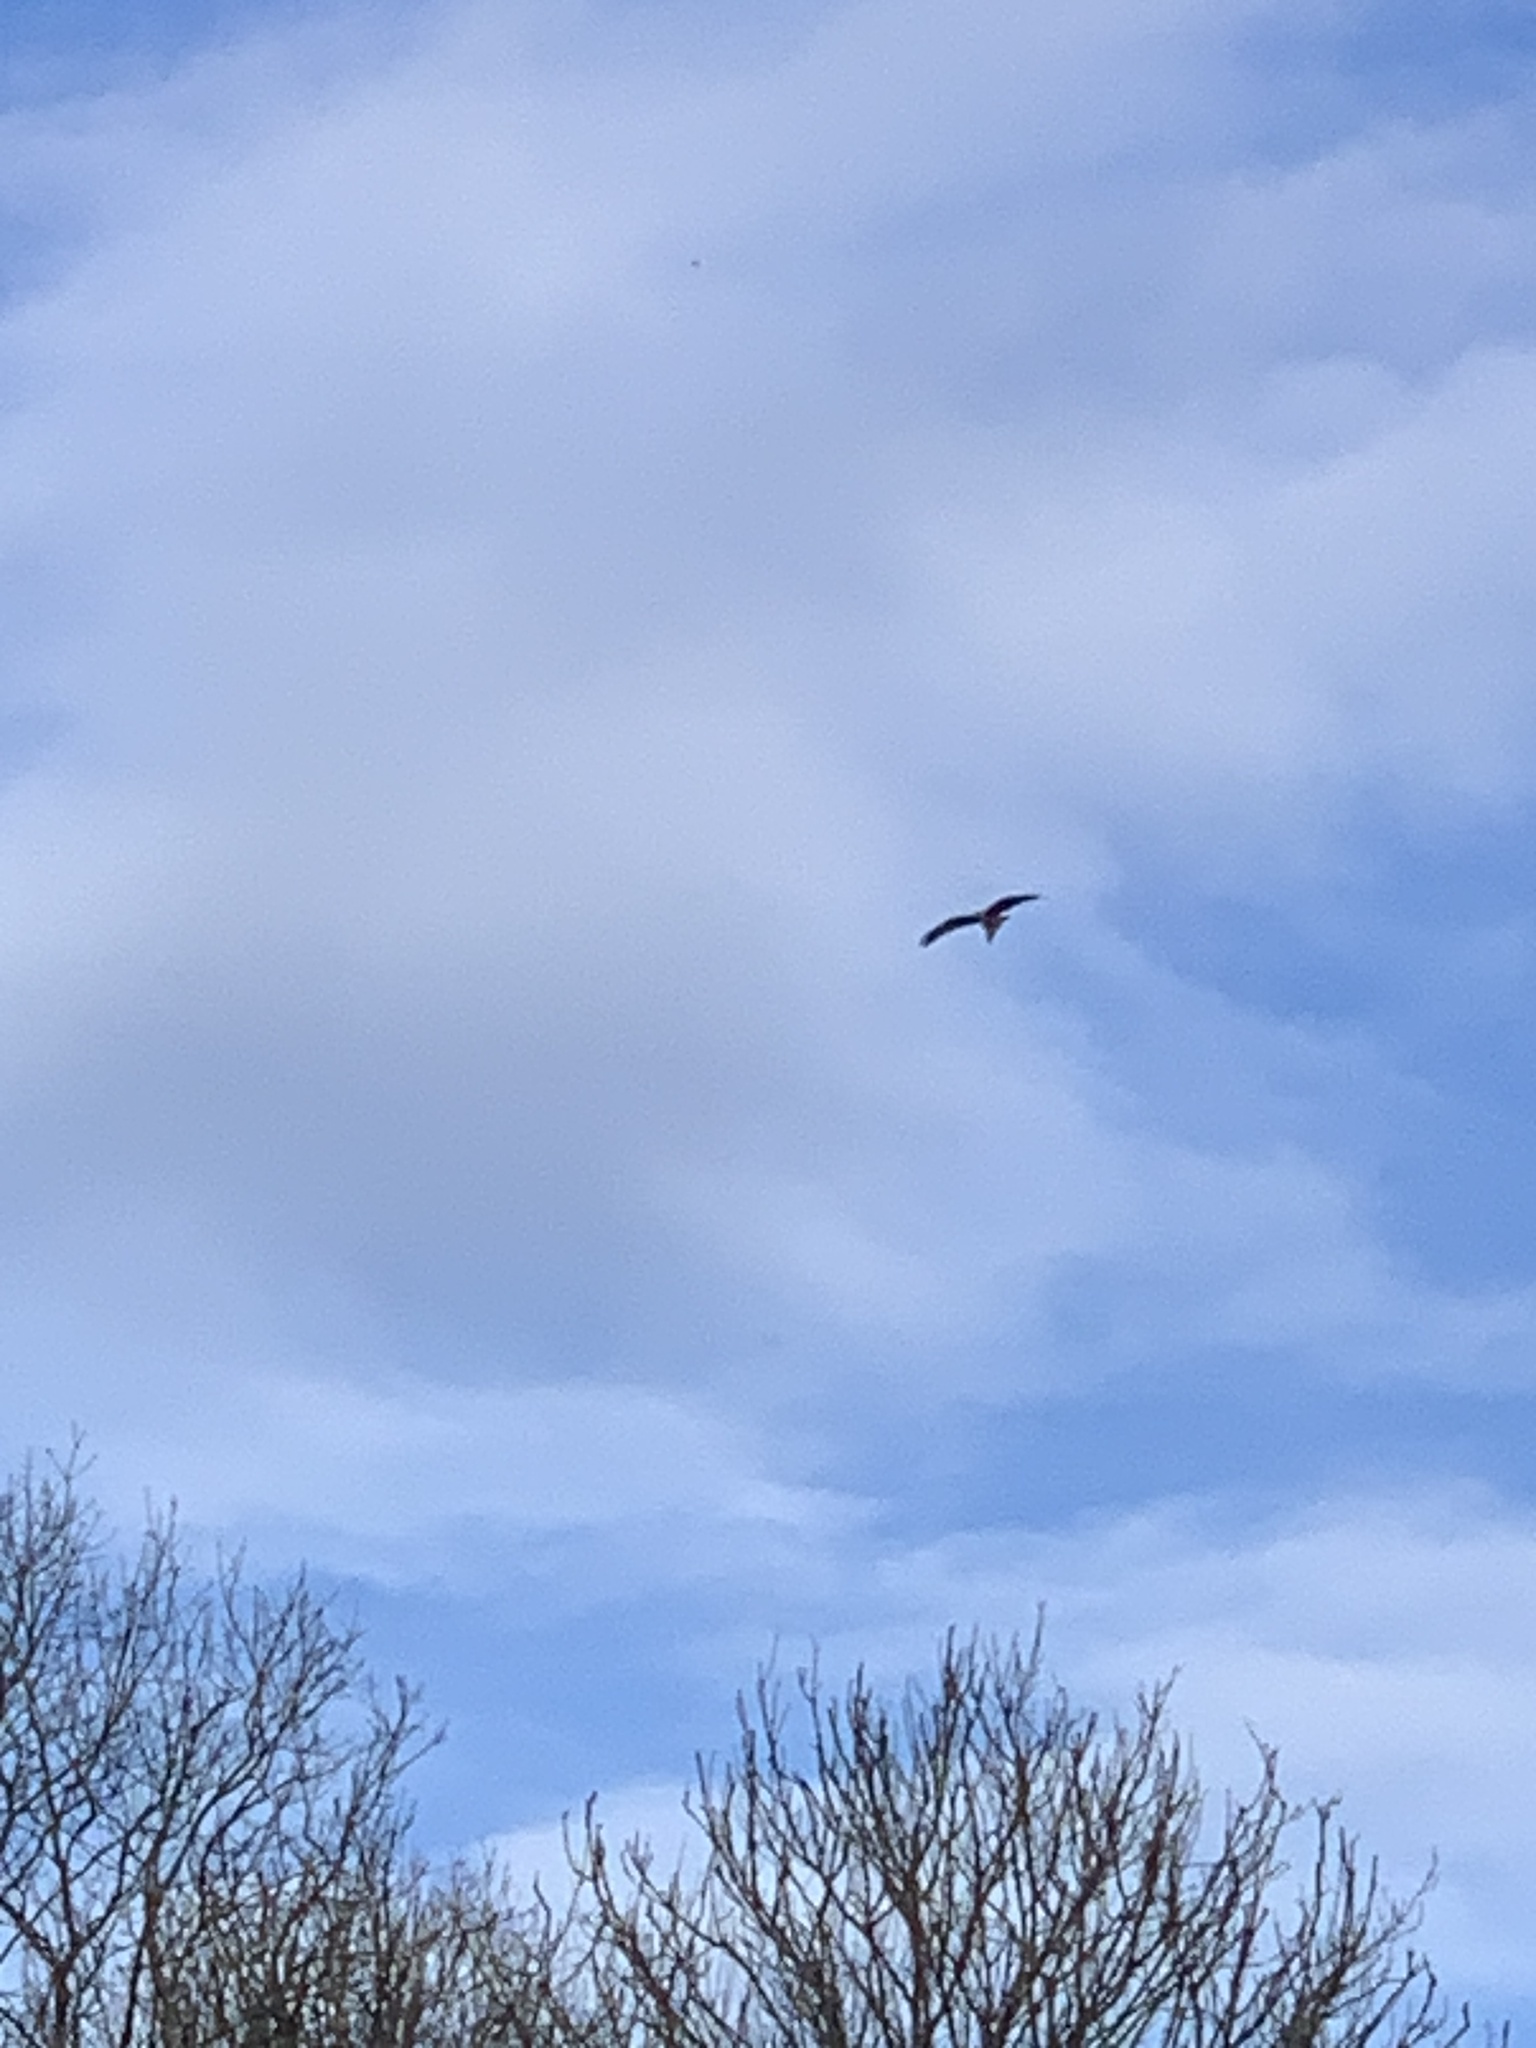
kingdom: Animalia
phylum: Chordata
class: Aves
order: Accipitriformes
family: Accipitridae
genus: Milvus
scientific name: Milvus milvus
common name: Red kite
